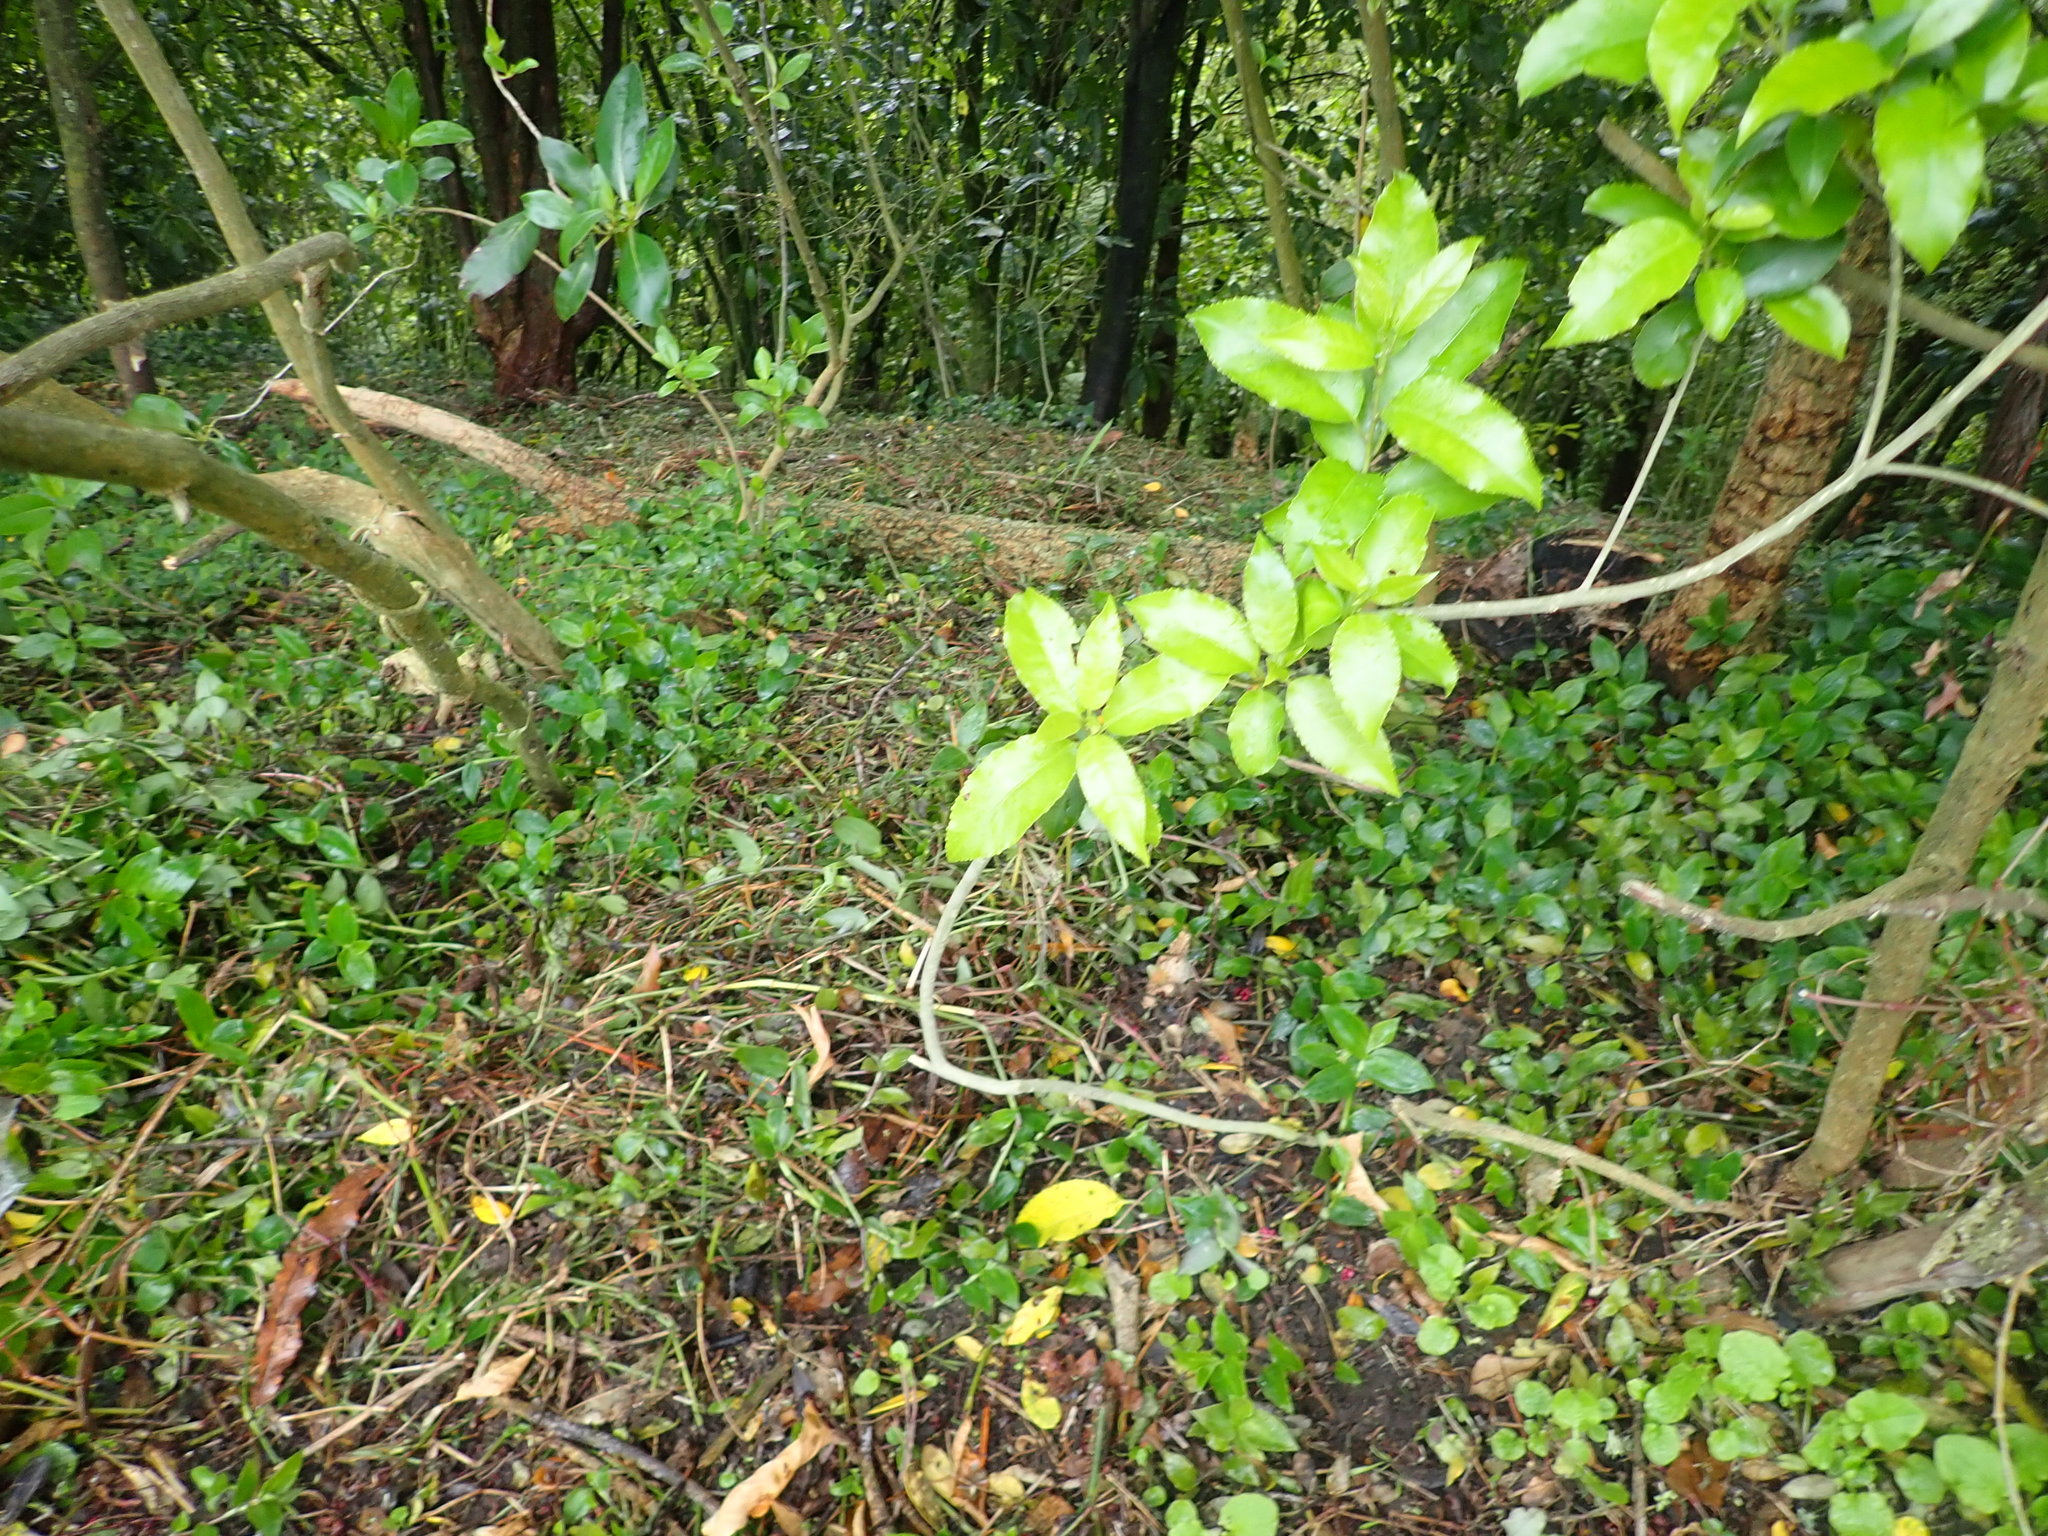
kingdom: Plantae
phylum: Tracheophyta
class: Liliopsida
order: Commelinales
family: Commelinaceae
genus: Tradescantia
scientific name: Tradescantia fluminensis
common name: Wandering-jew
